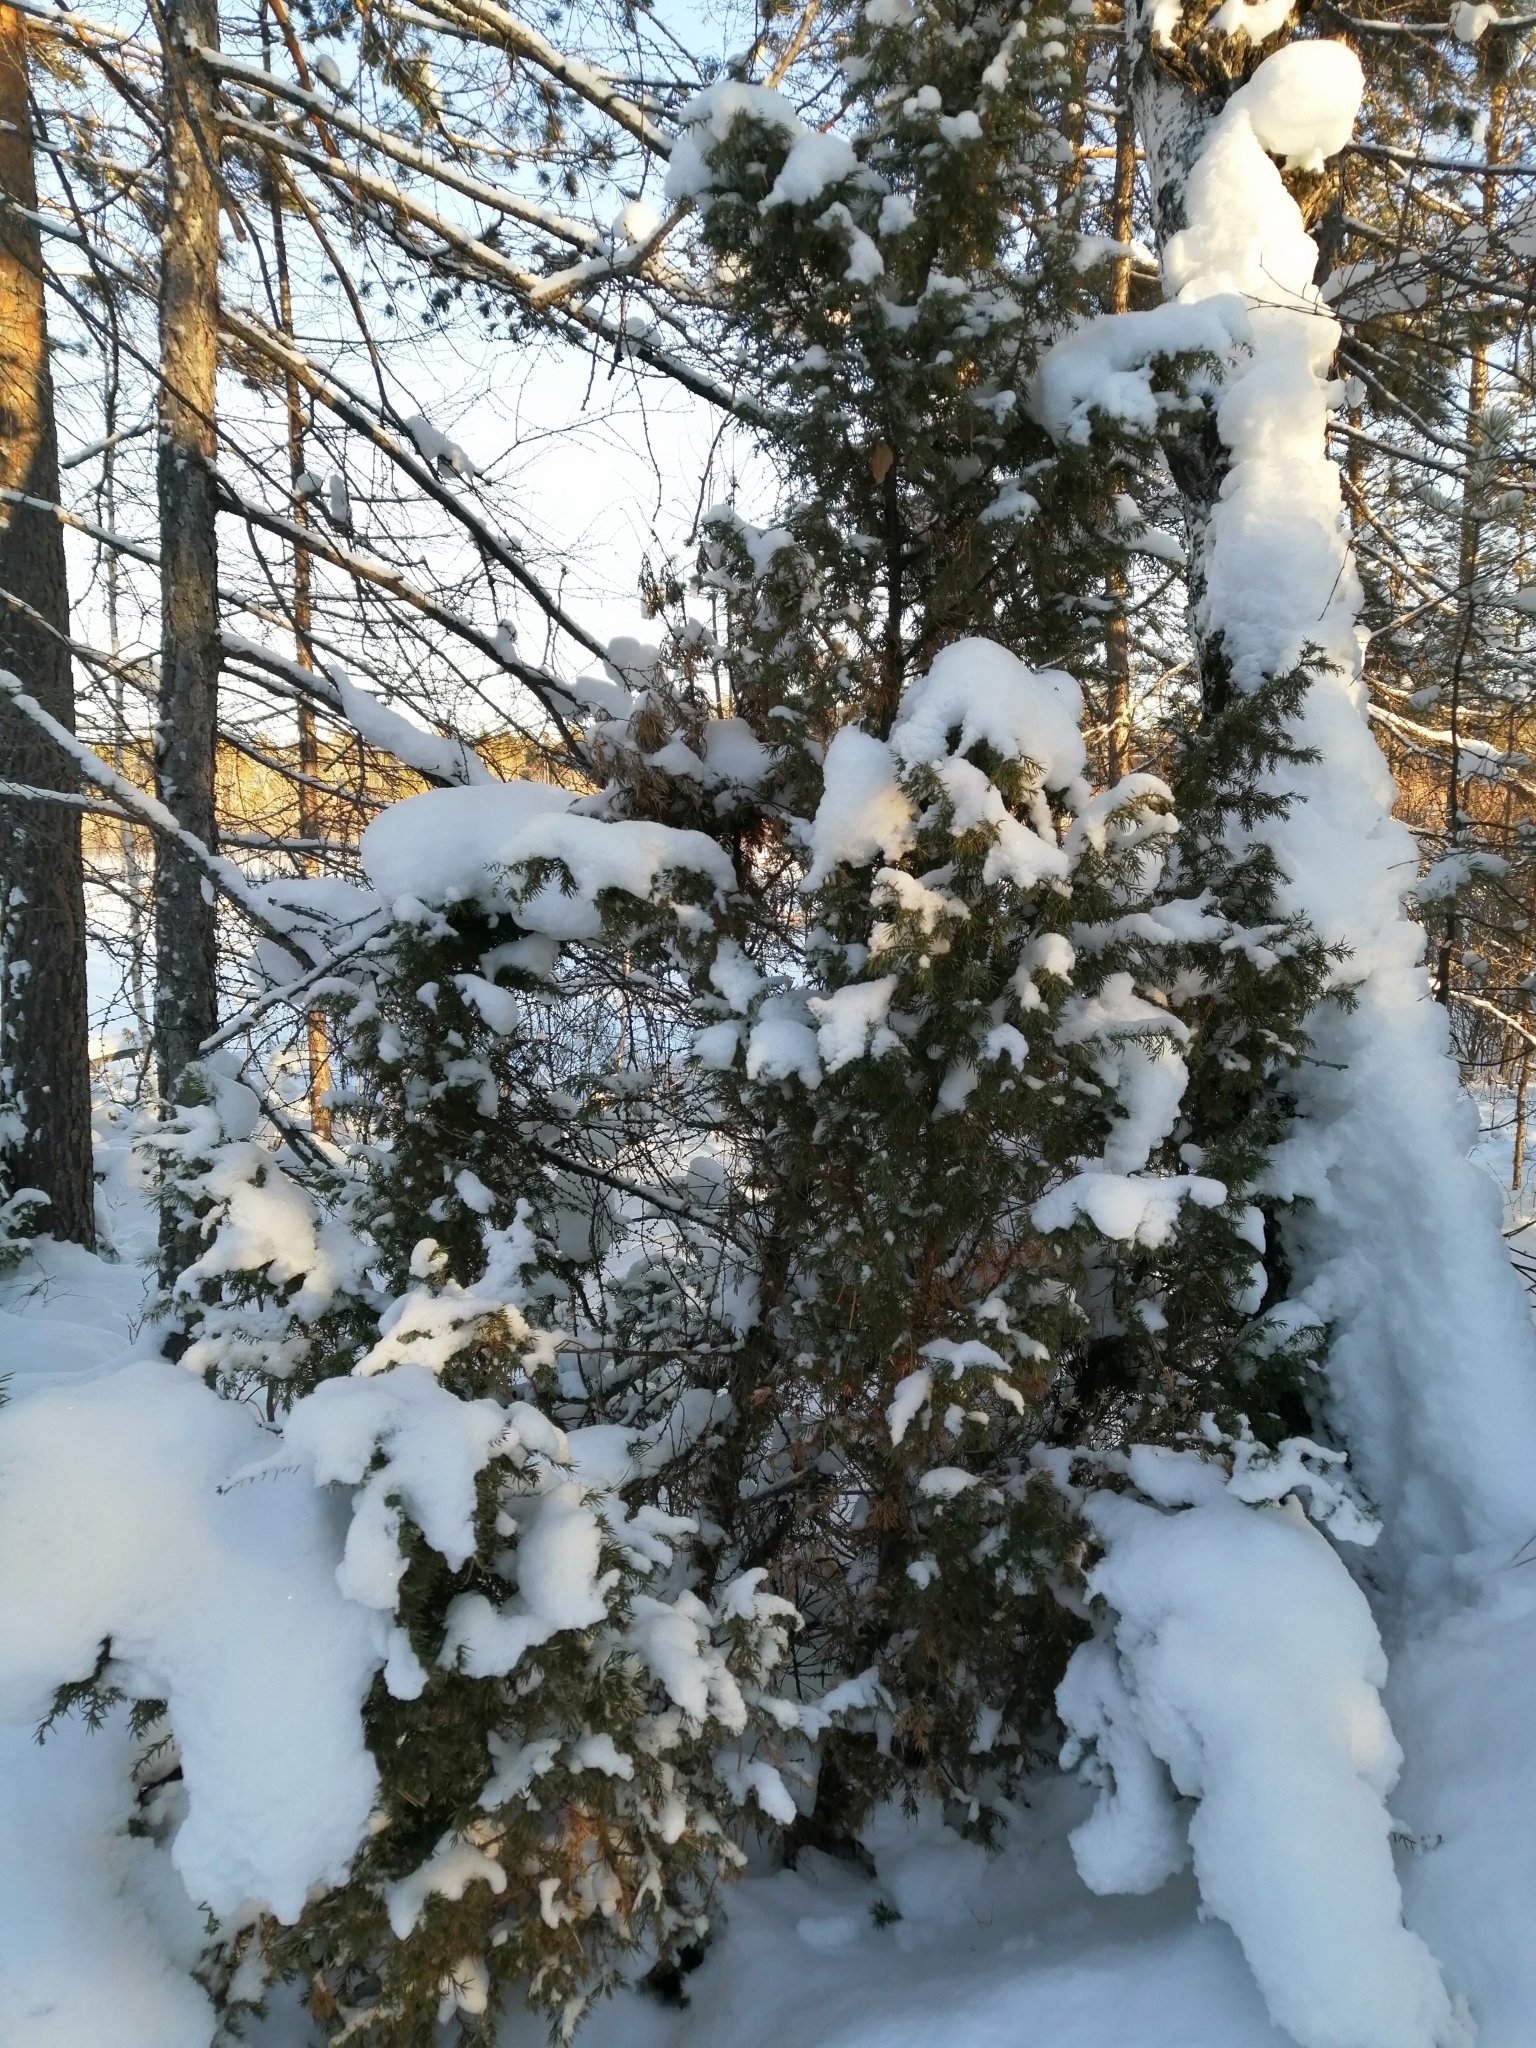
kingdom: Plantae
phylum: Tracheophyta
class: Pinopsida
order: Pinales
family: Cupressaceae
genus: Juniperus
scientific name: Juniperus communis
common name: Common juniper
